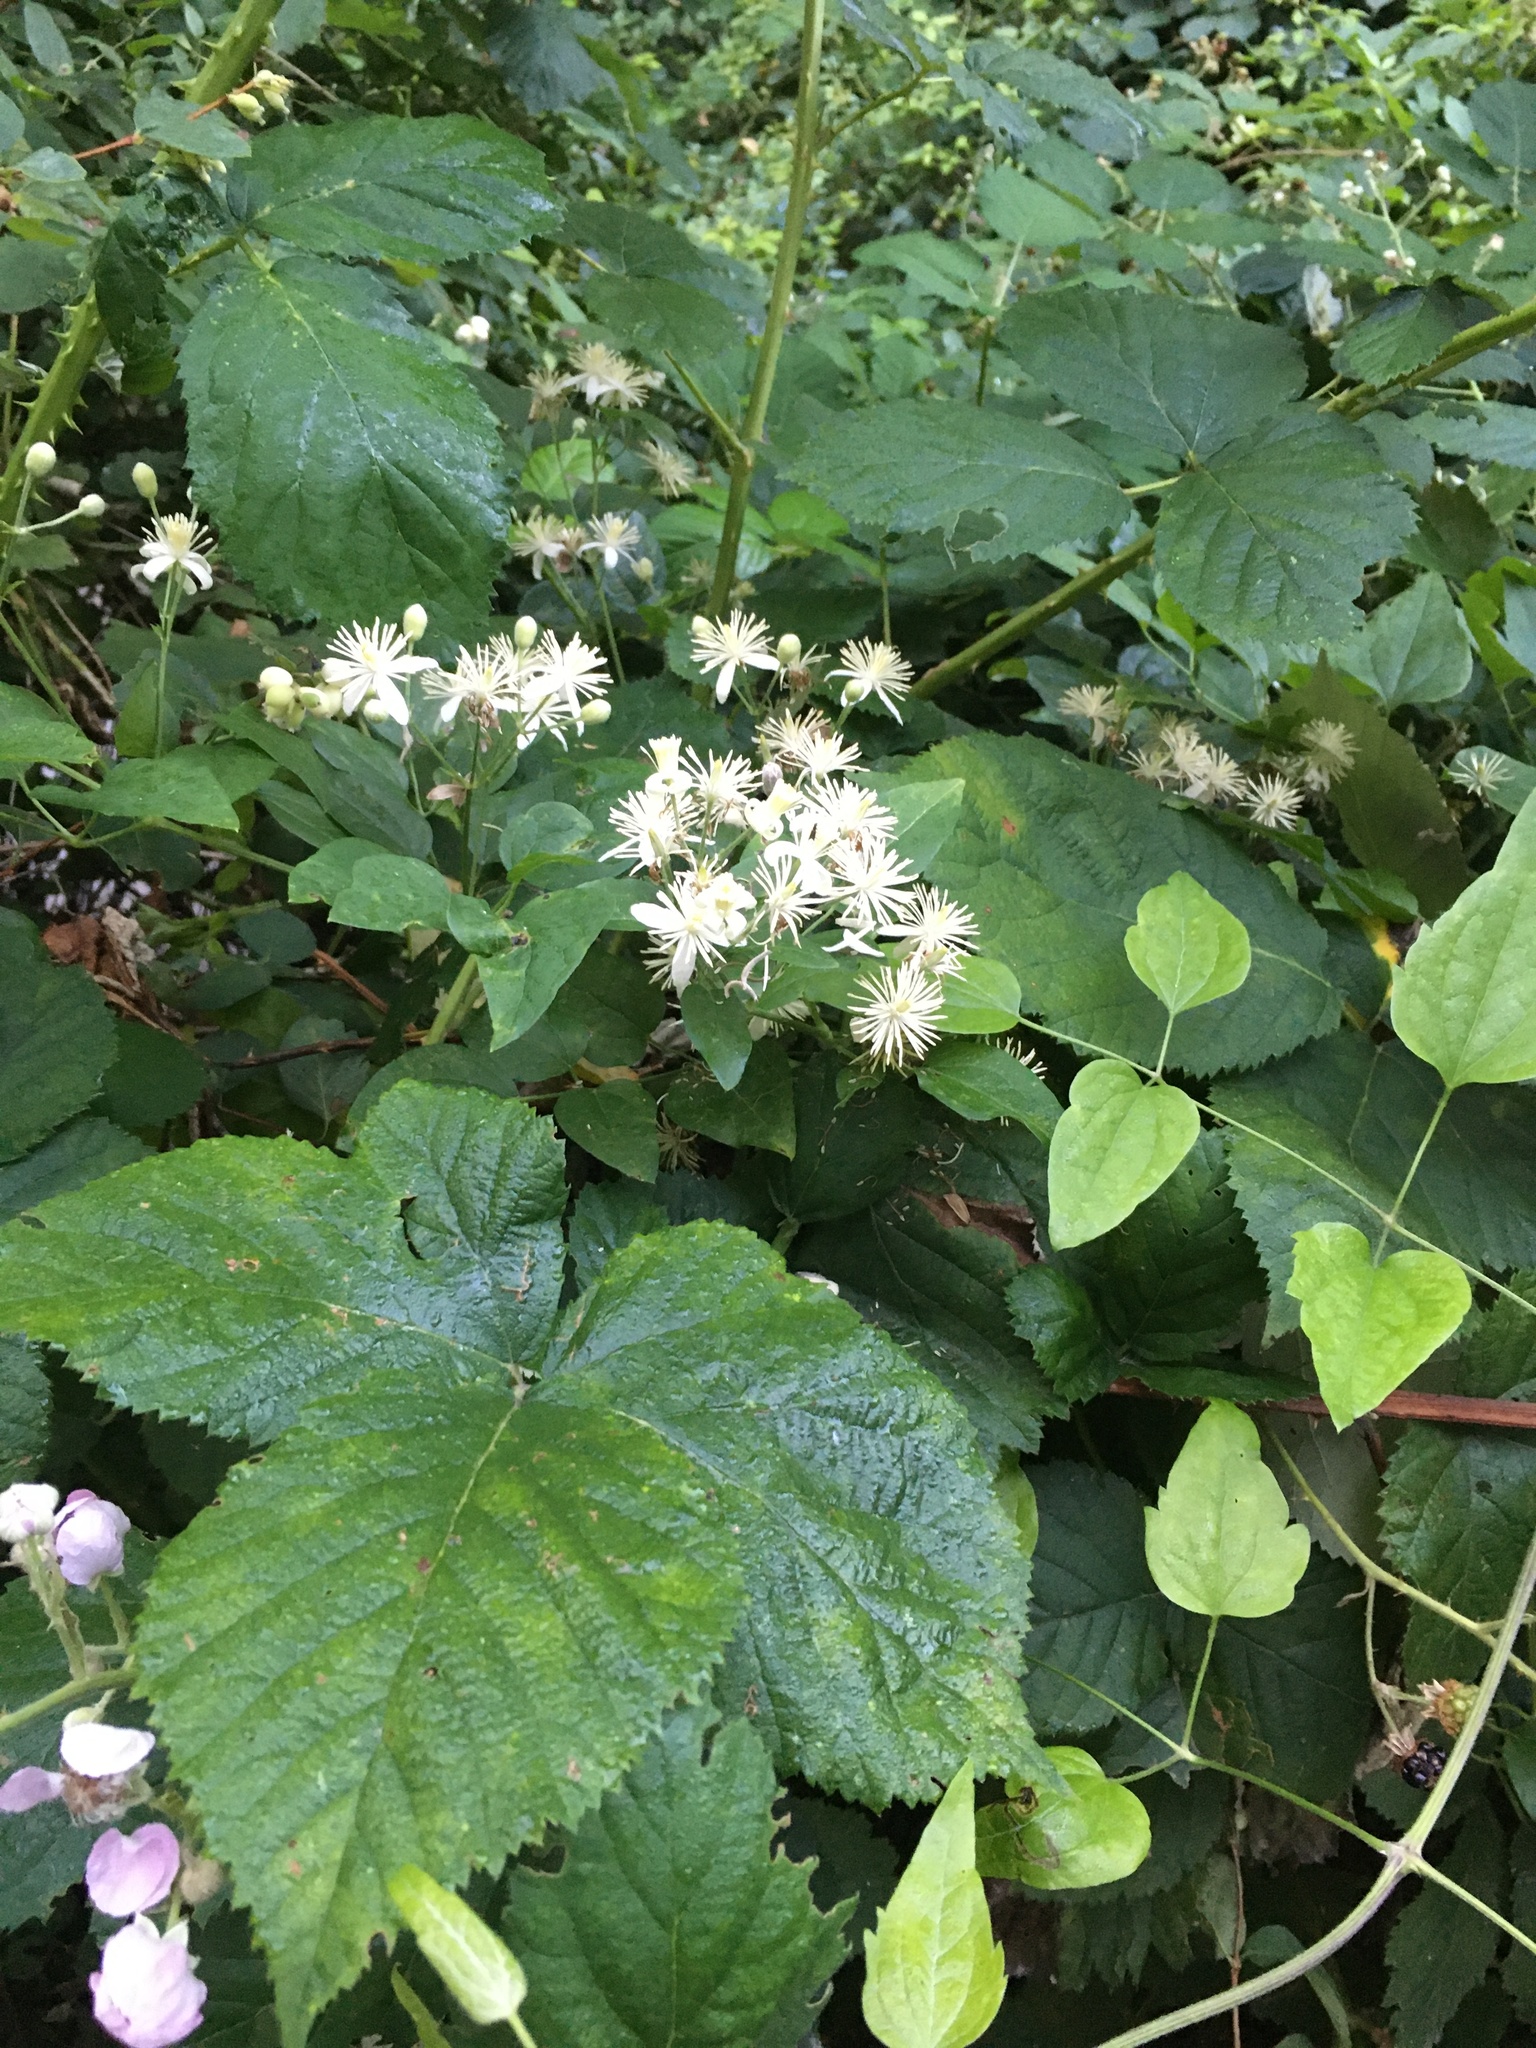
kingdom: Plantae
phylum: Tracheophyta
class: Magnoliopsida
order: Ranunculales
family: Ranunculaceae
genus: Clematis
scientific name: Clematis vitalba
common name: Evergreen clematis
